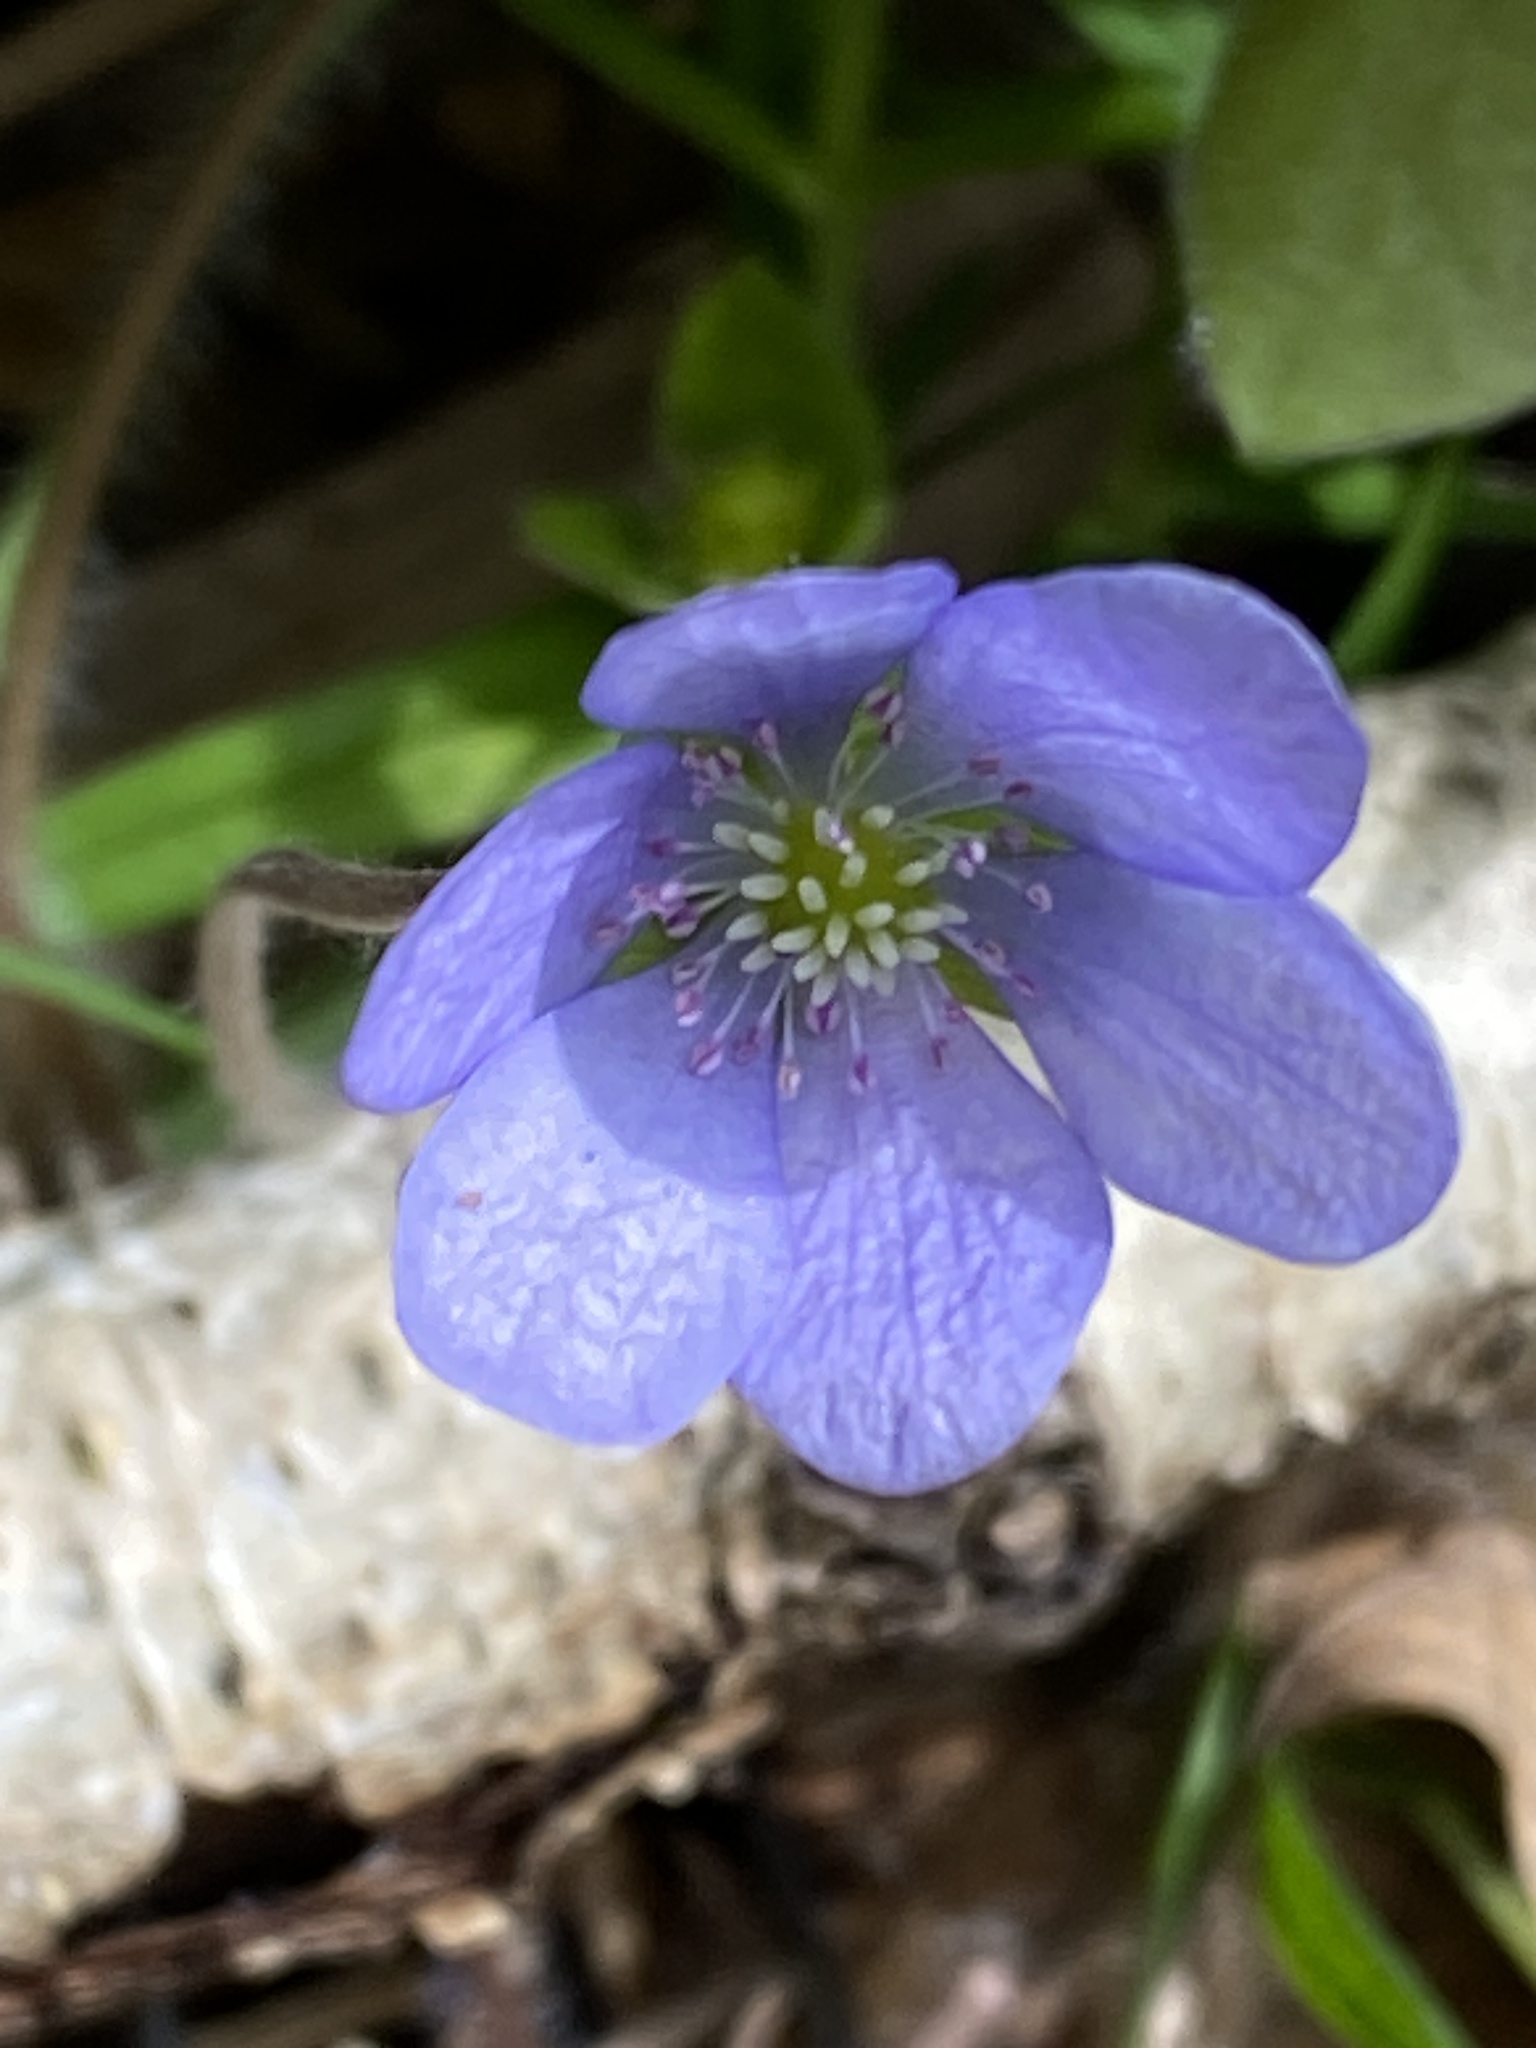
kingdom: Plantae
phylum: Tracheophyta
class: Magnoliopsida
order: Ranunculales
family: Ranunculaceae
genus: Hepatica
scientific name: Hepatica nobilis
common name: Liverleaf
